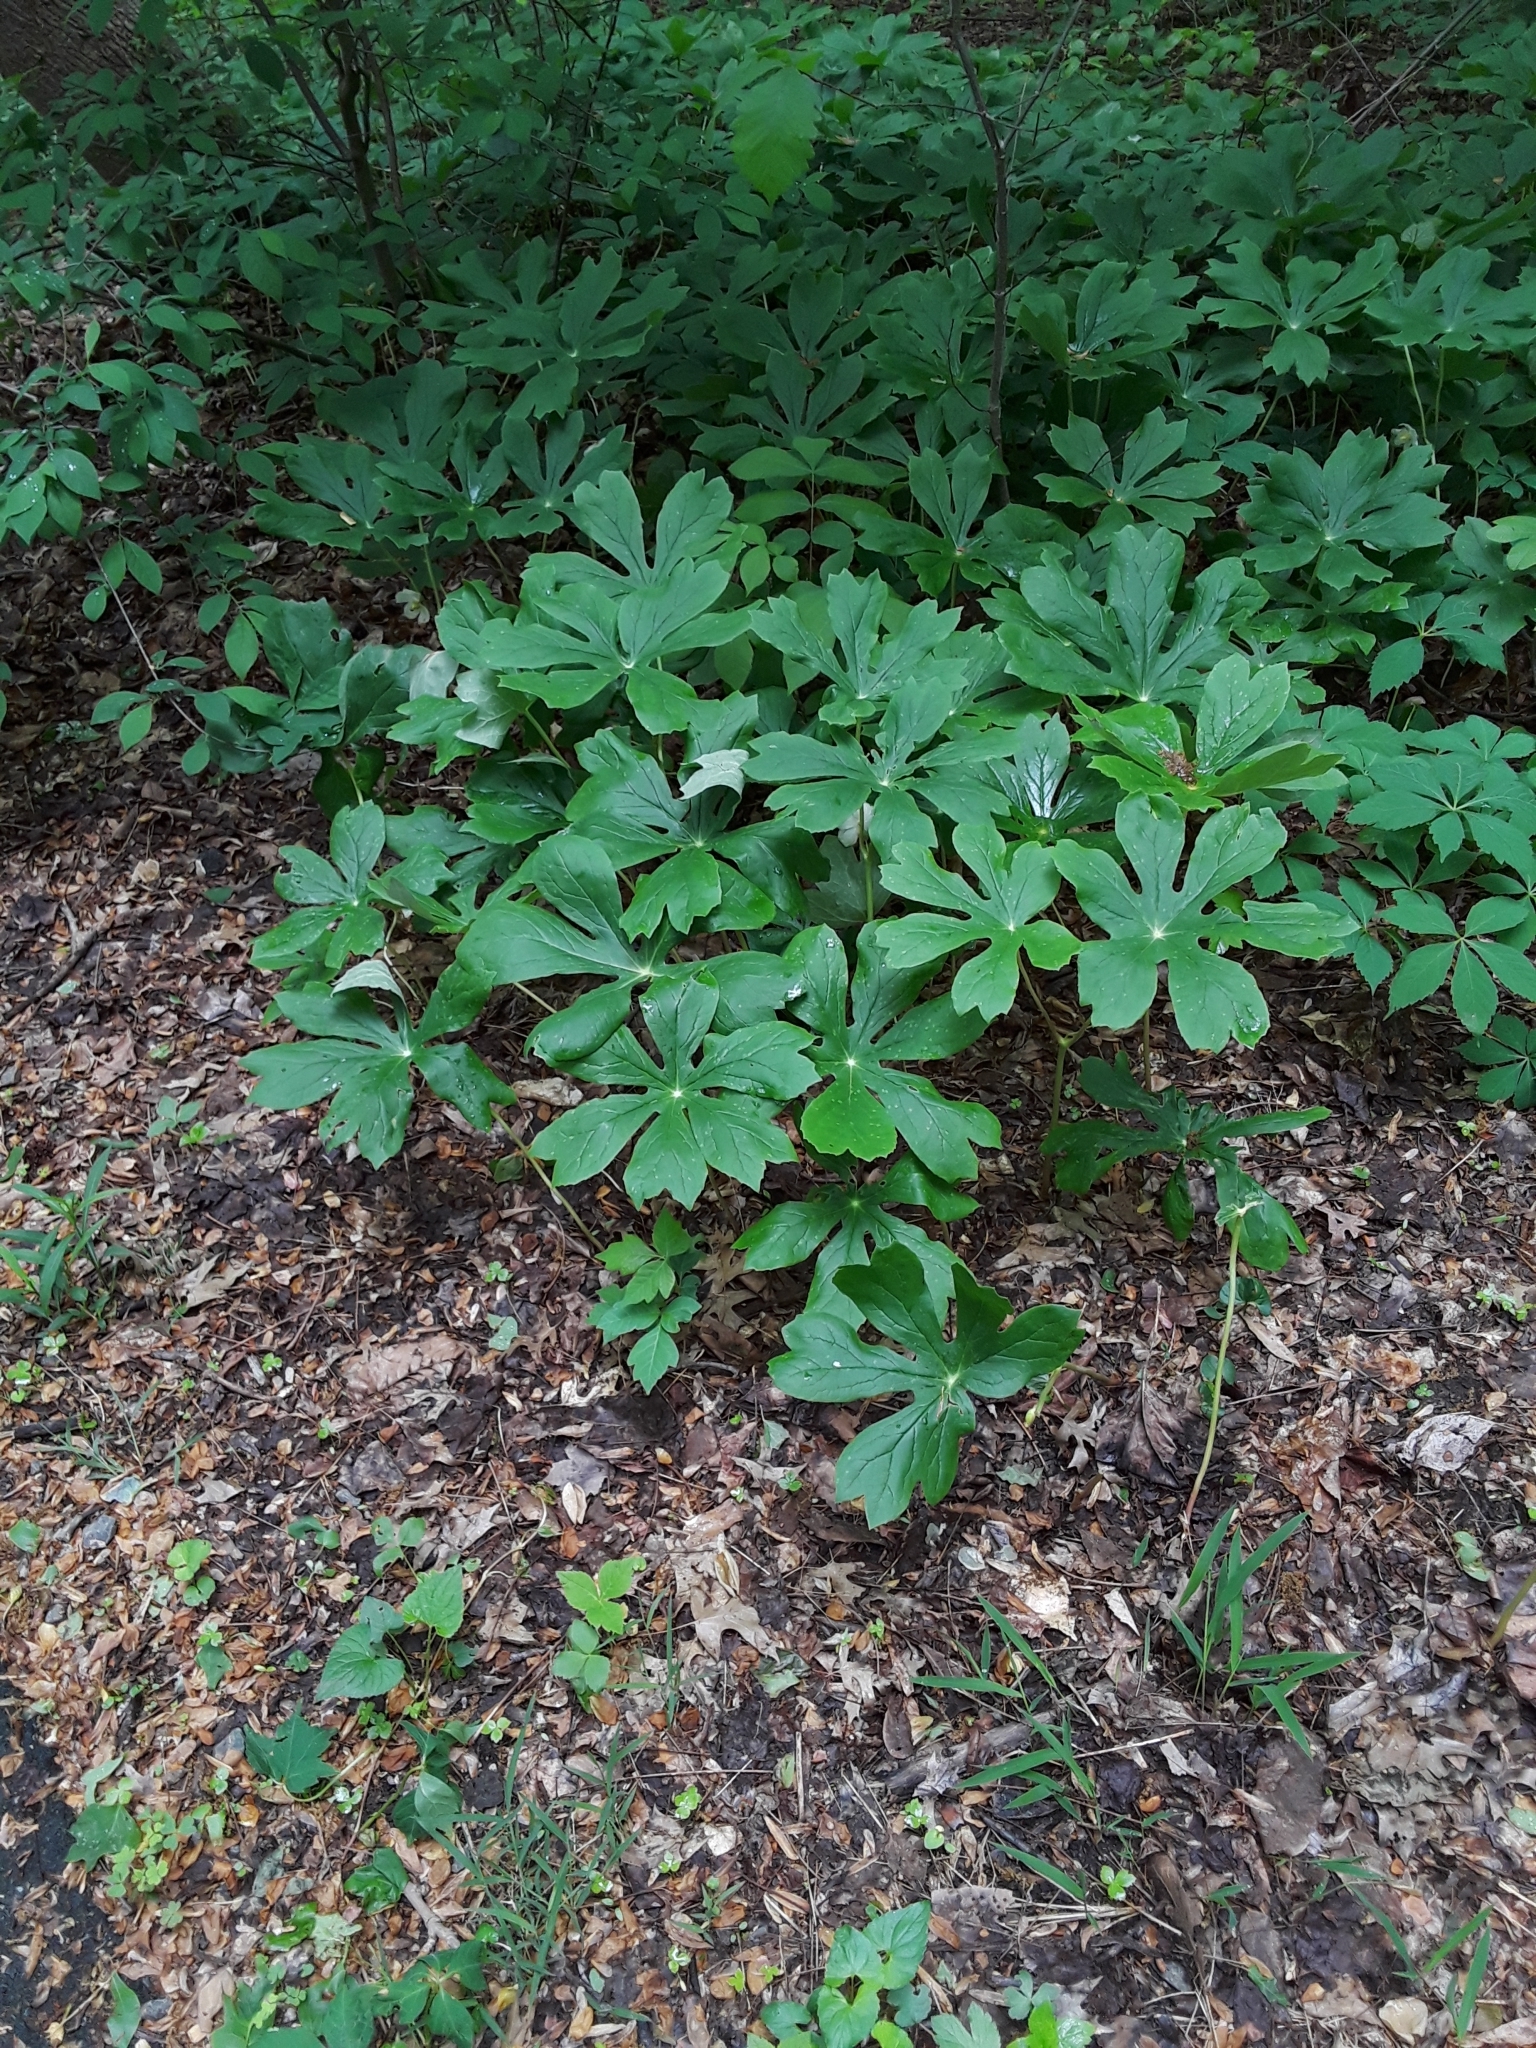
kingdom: Plantae
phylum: Tracheophyta
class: Magnoliopsida
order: Ranunculales
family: Berberidaceae
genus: Podophyllum
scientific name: Podophyllum peltatum
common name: Wild mandrake
